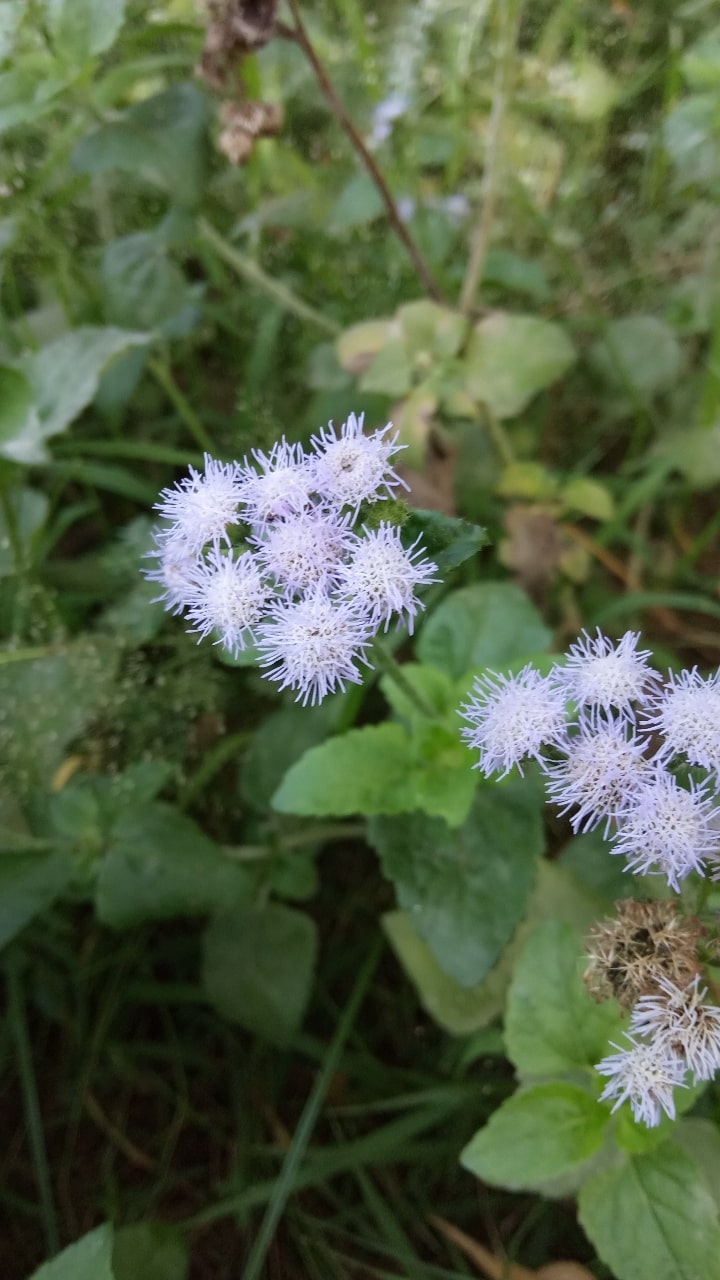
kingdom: Plantae
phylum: Tracheophyta
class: Magnoliopsida
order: Asterales
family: Asteraceae
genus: Ageratum
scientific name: Ageratum houstonianum
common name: Bluemink
